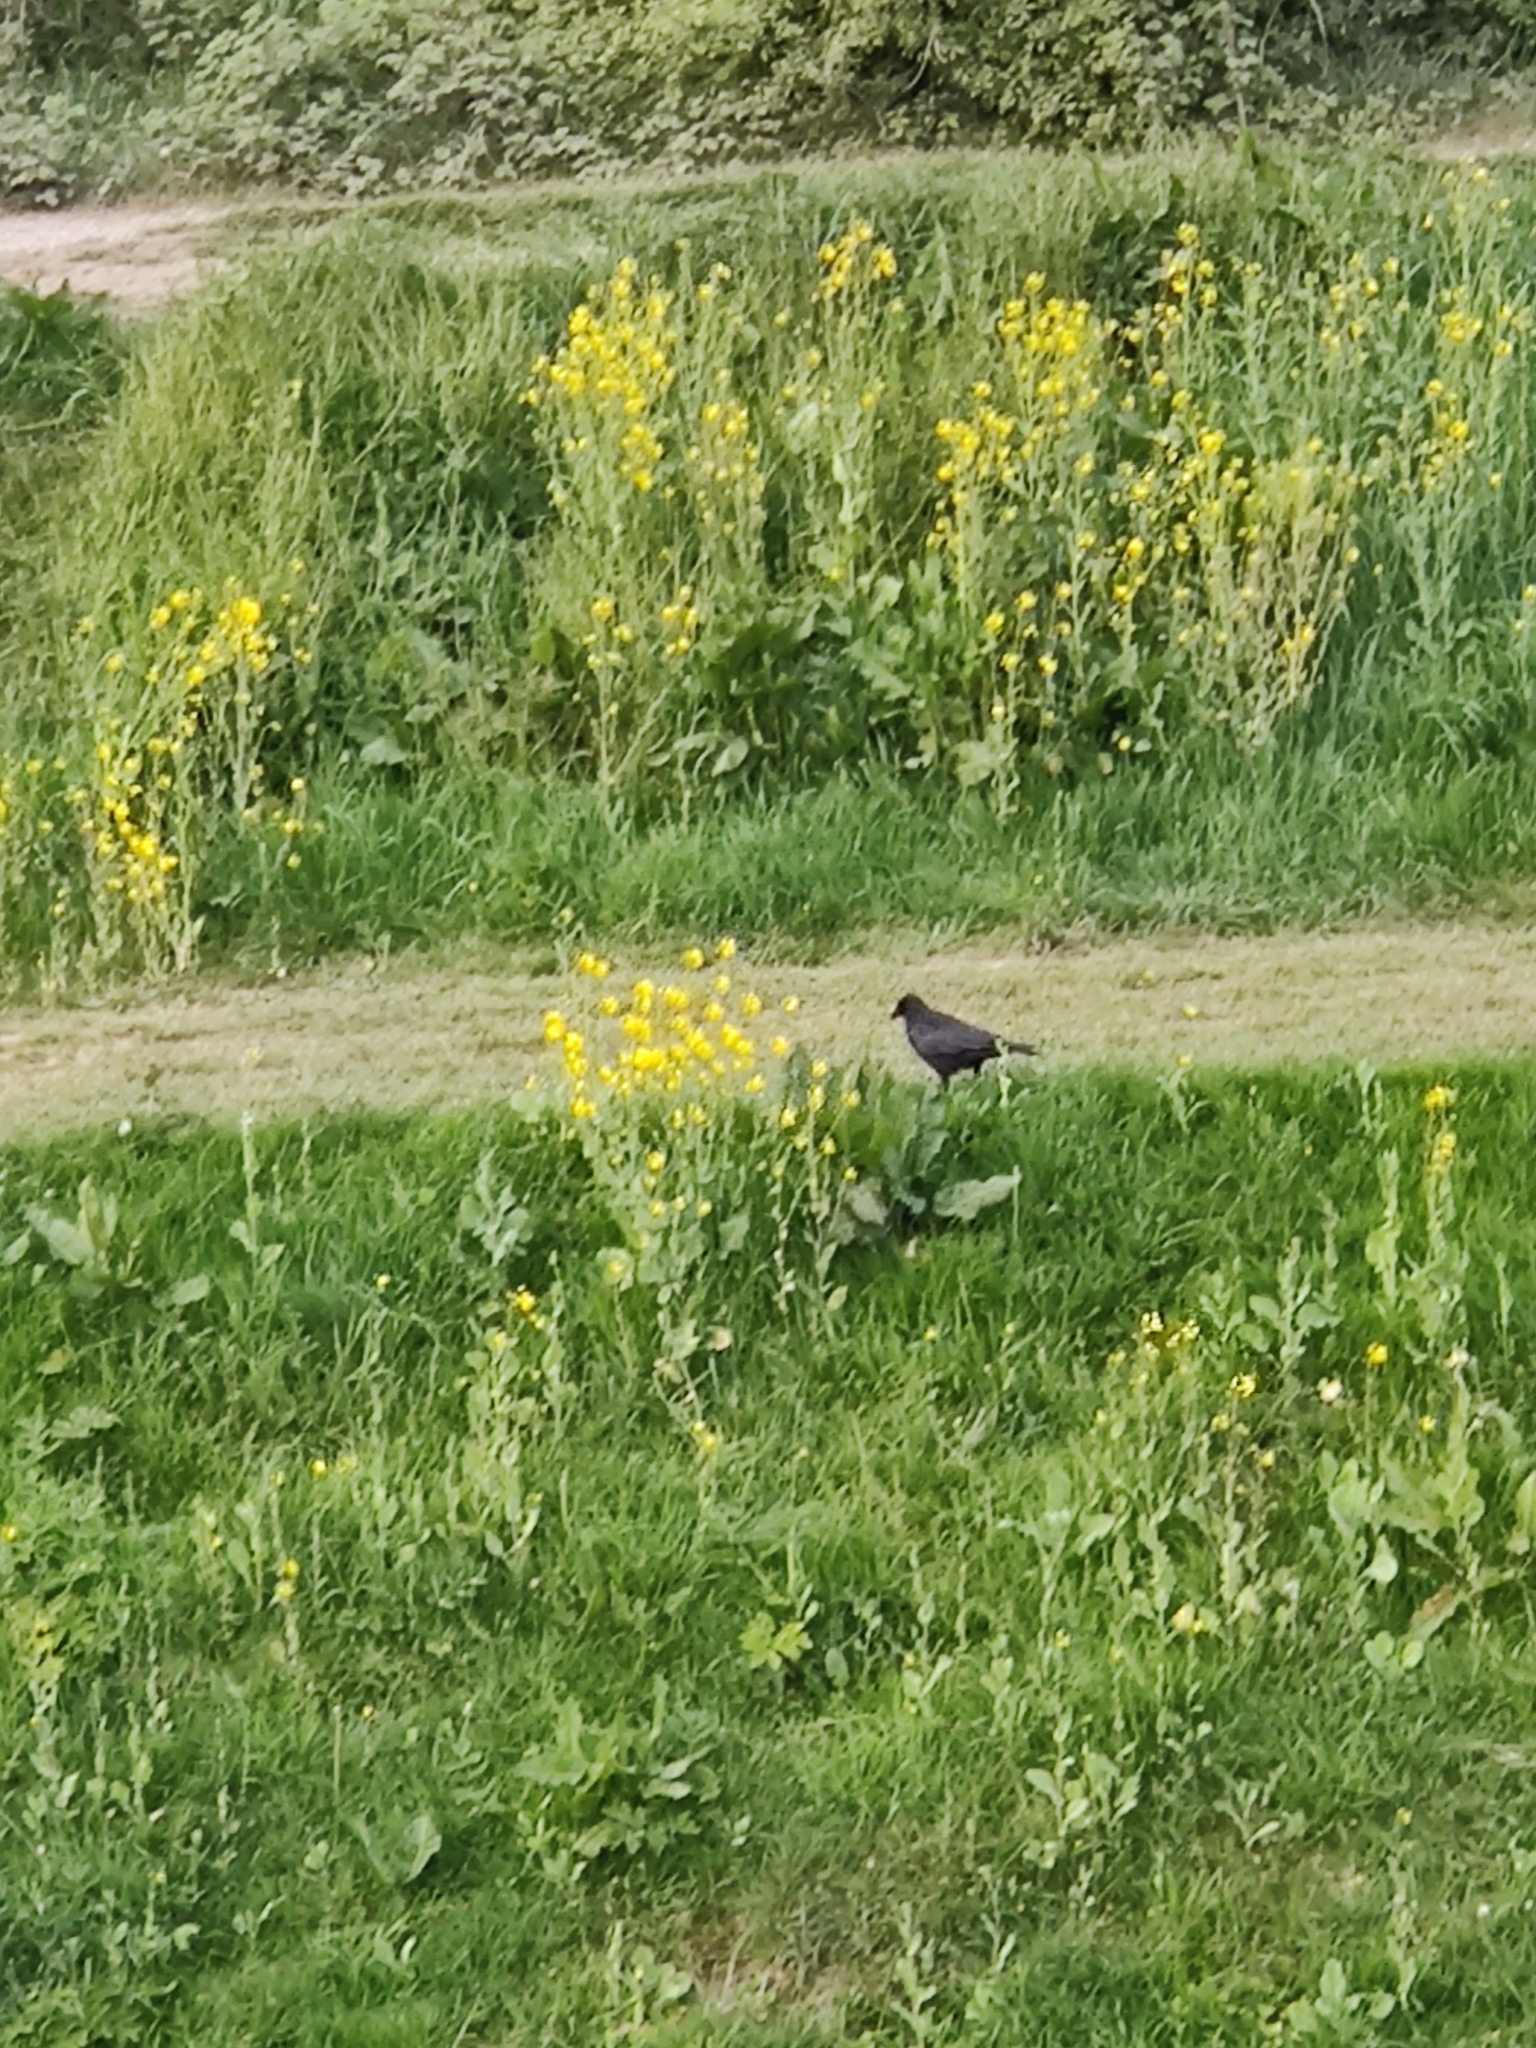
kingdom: Animalia
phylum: Chordata
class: Aves
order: Passeriformes
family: Corvidae
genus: Corvus
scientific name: Corvus corone
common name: Carrion crow
